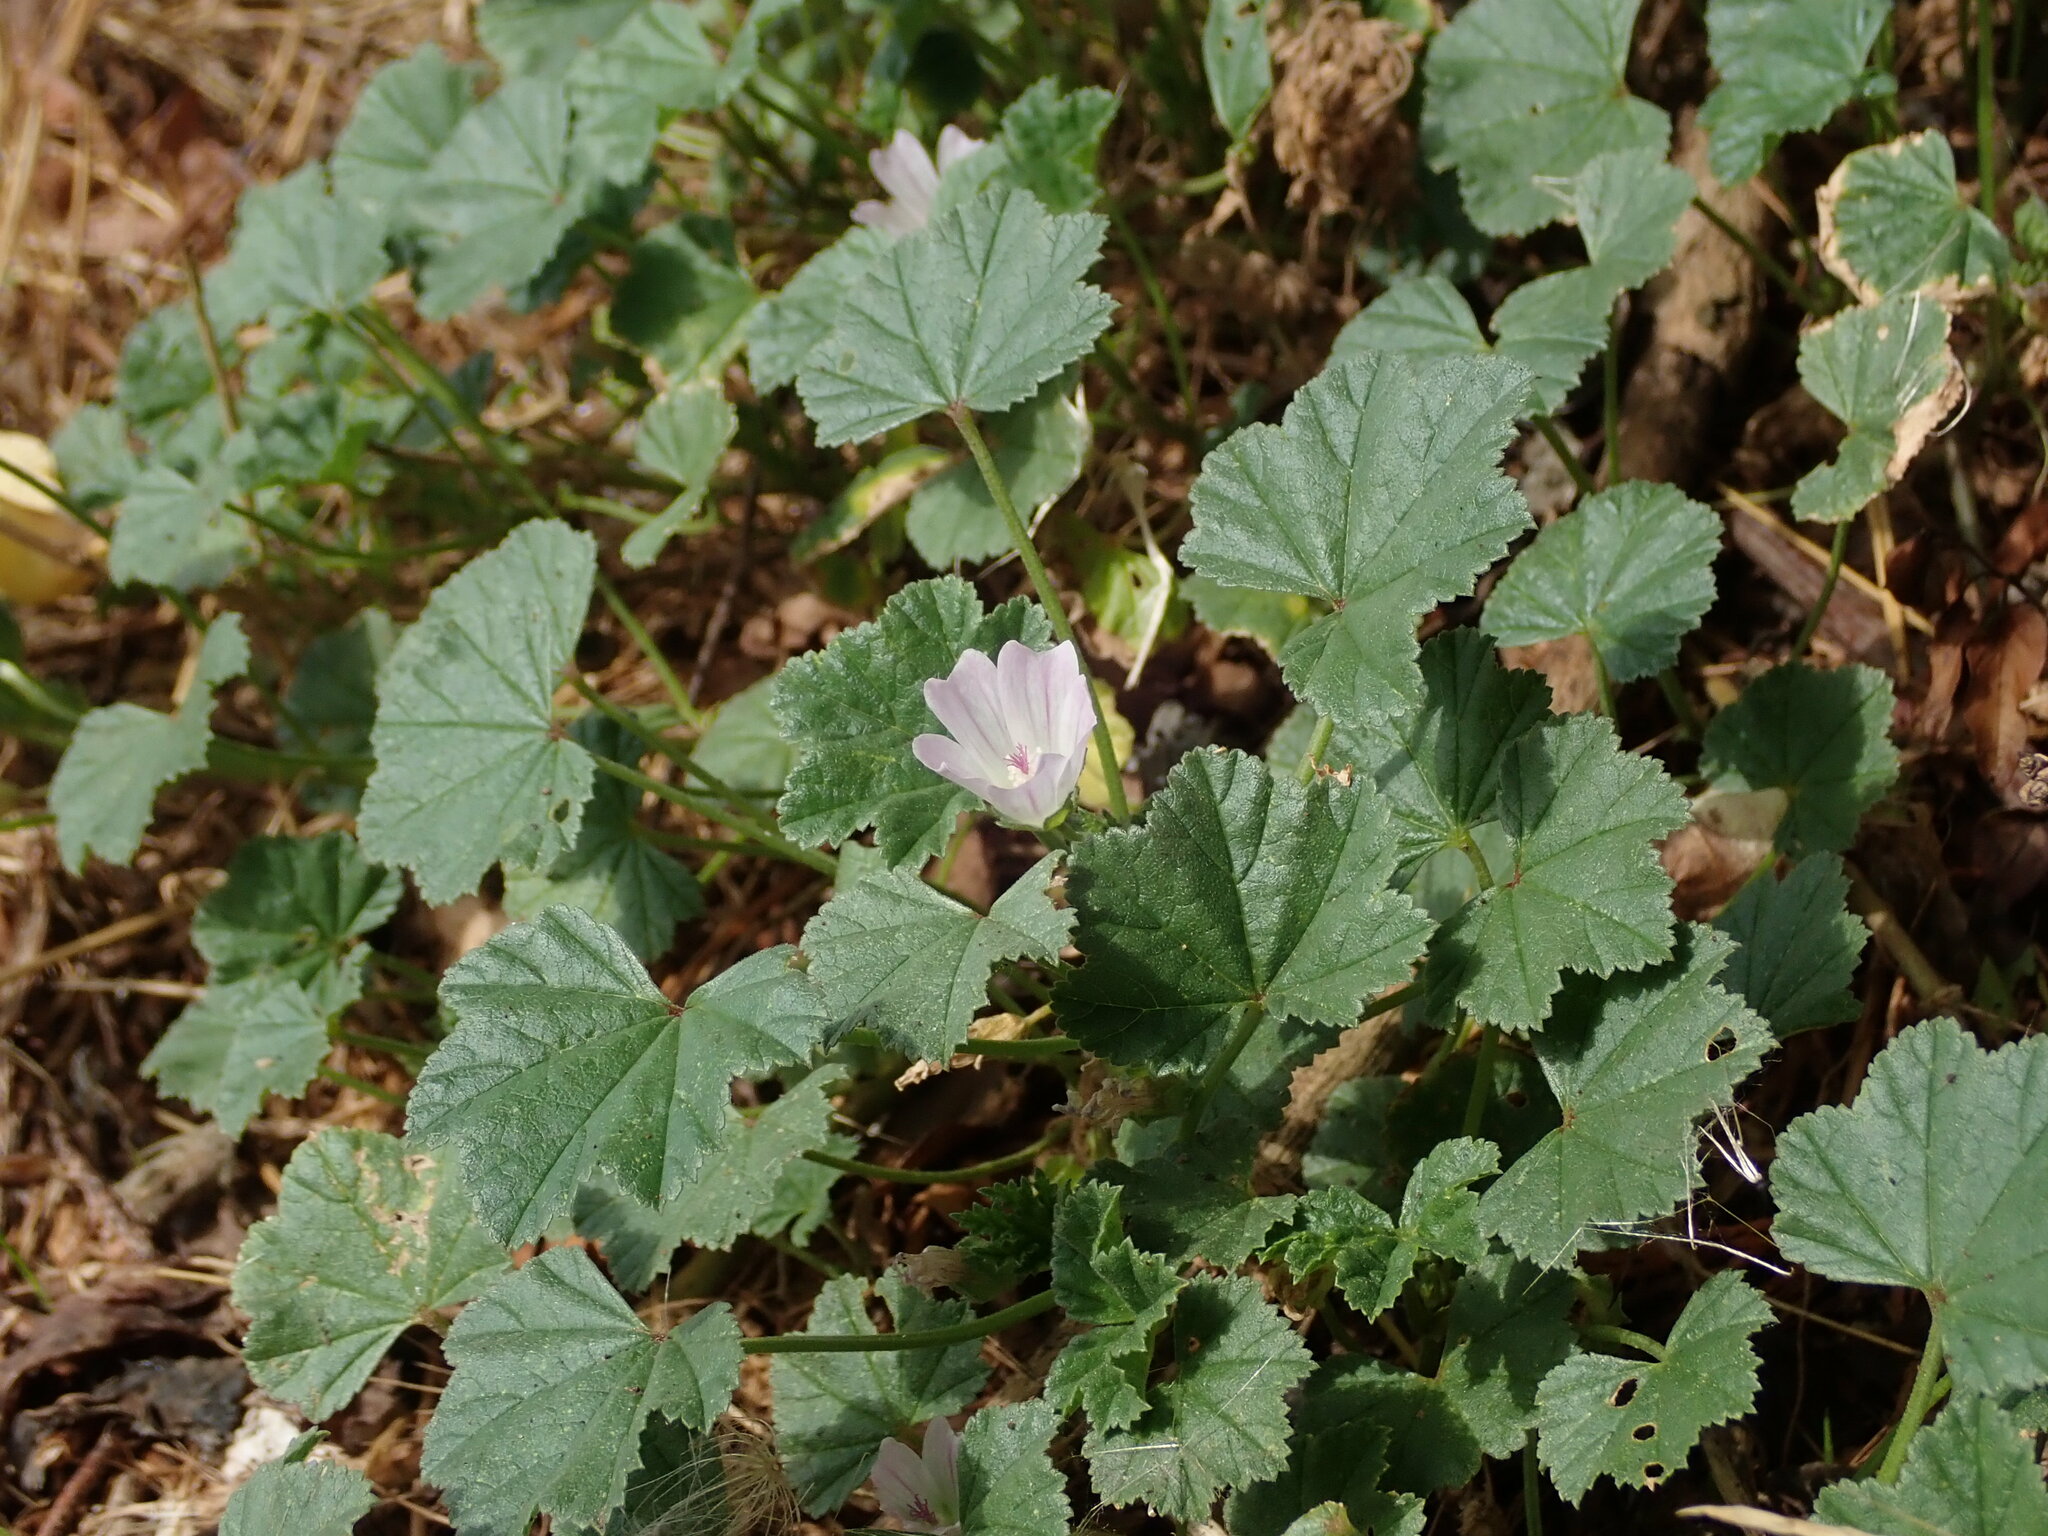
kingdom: Plantae
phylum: Tracheophyta
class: Magnoliopsida
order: Malvales
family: Malvaceae
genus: Malva
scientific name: Malva neglecta
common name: Common mallow
